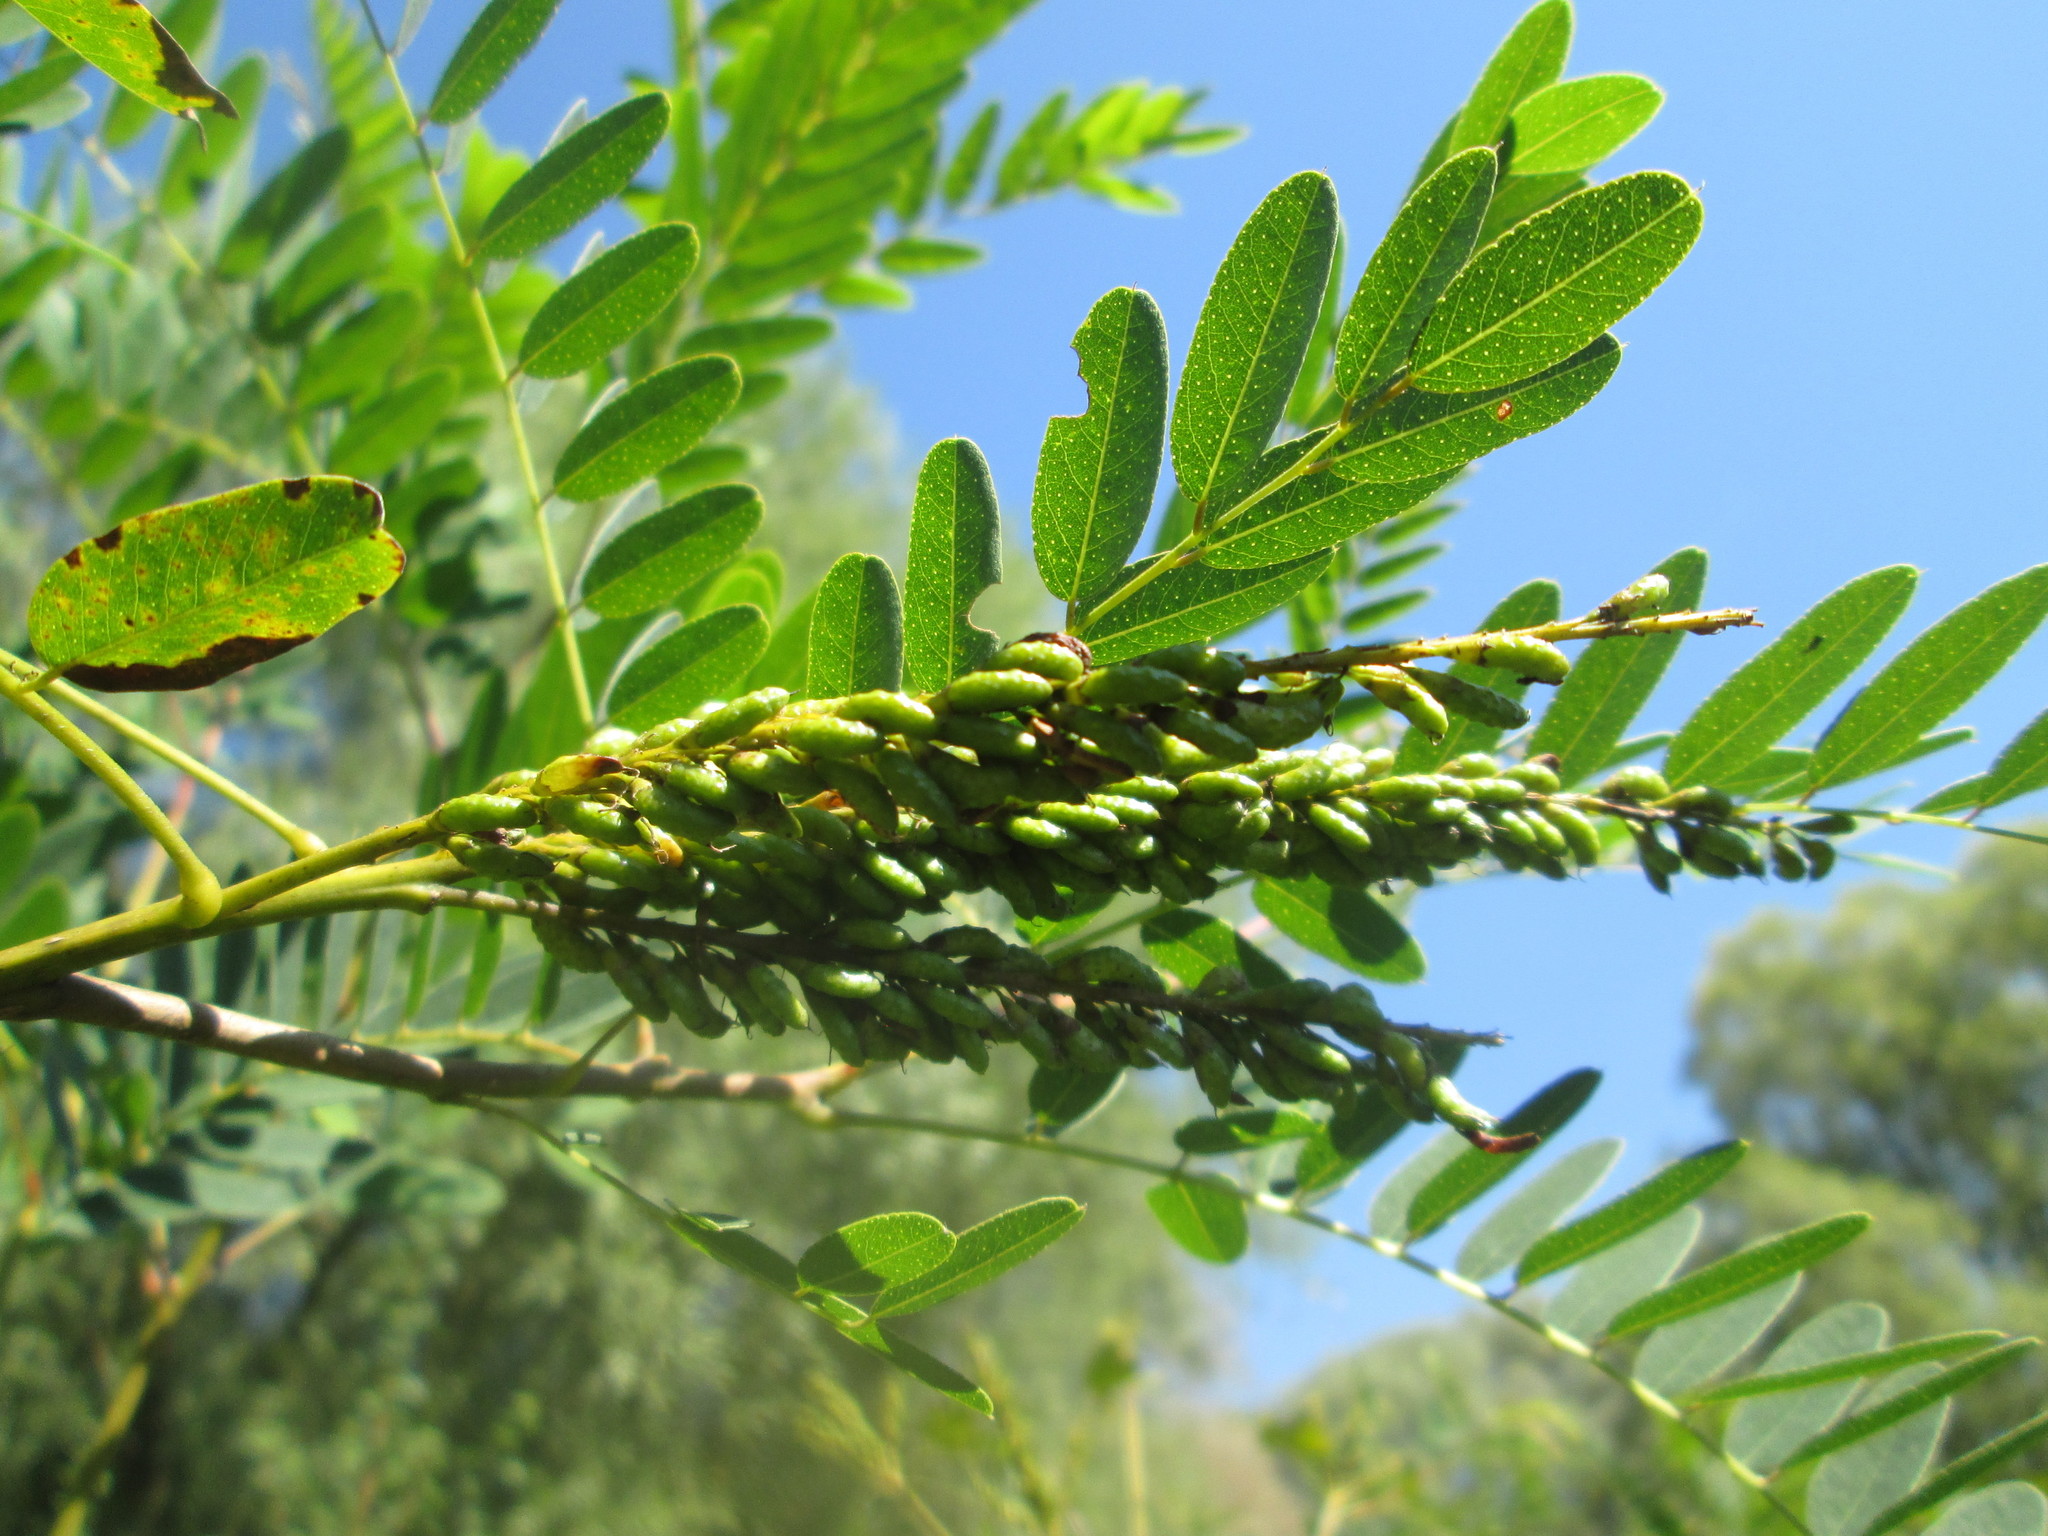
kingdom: Plantae
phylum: Tracheophyta
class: Magnoliopsida
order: Fabales
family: Fabaceae
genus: Amorpha
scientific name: Amorpha fruticosa
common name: False indigo
